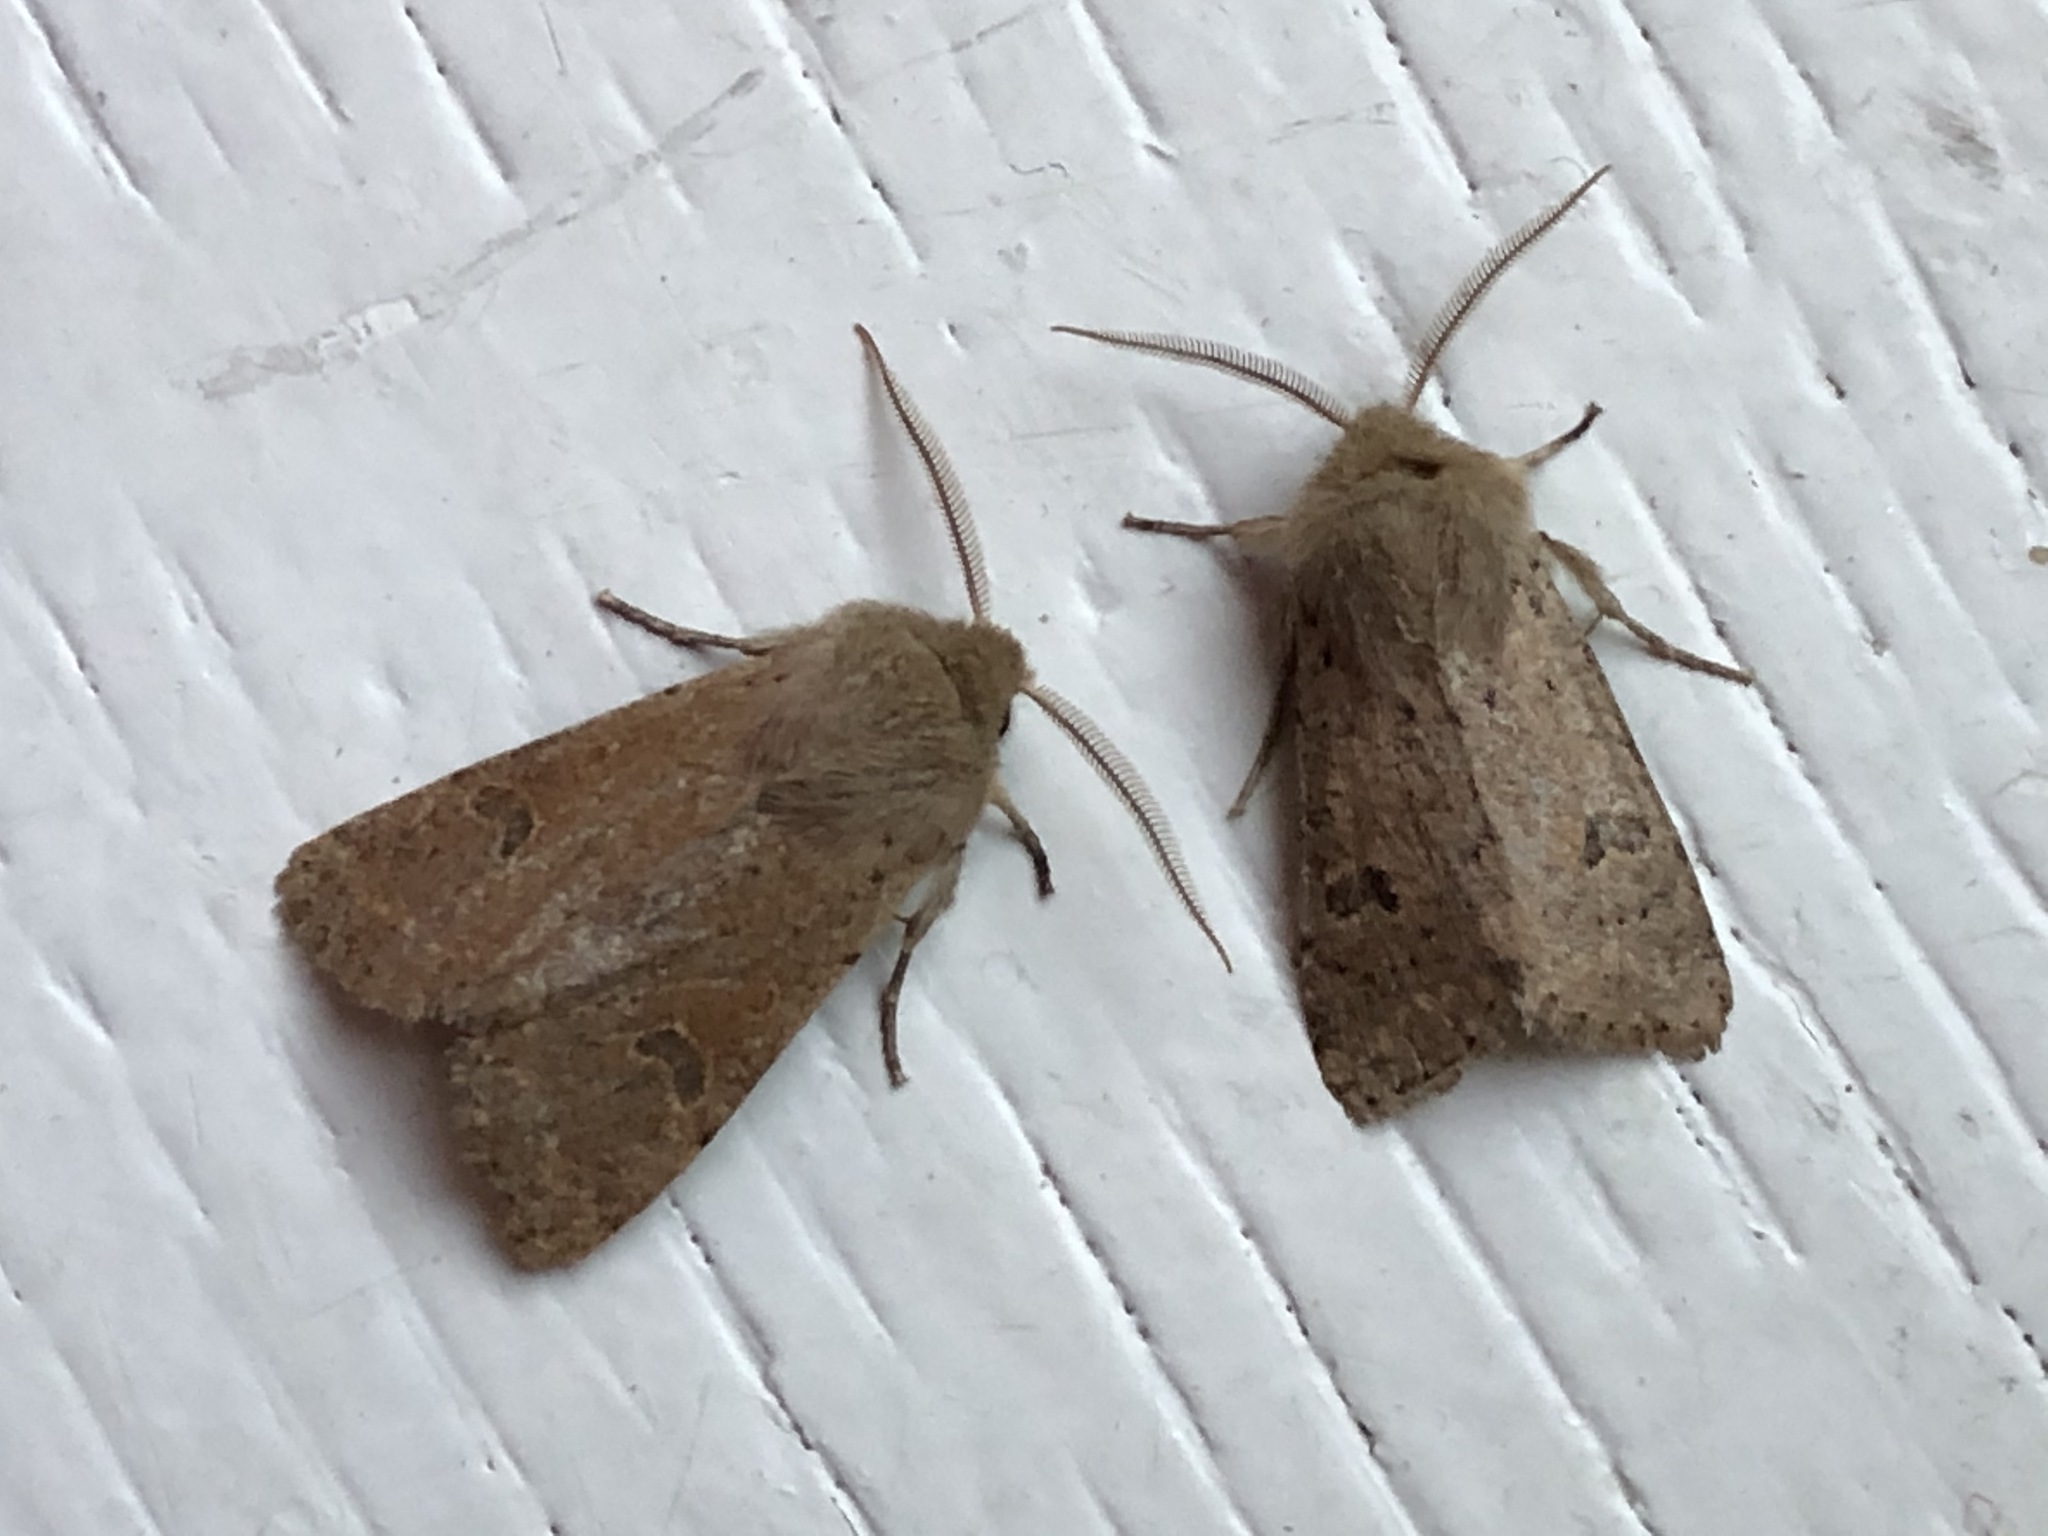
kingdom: Animalia
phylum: Arthropoda
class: Insecta
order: Lepidoptera
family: Noctuidae
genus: Orthosia
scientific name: Orthosia cruda
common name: Small quaker
